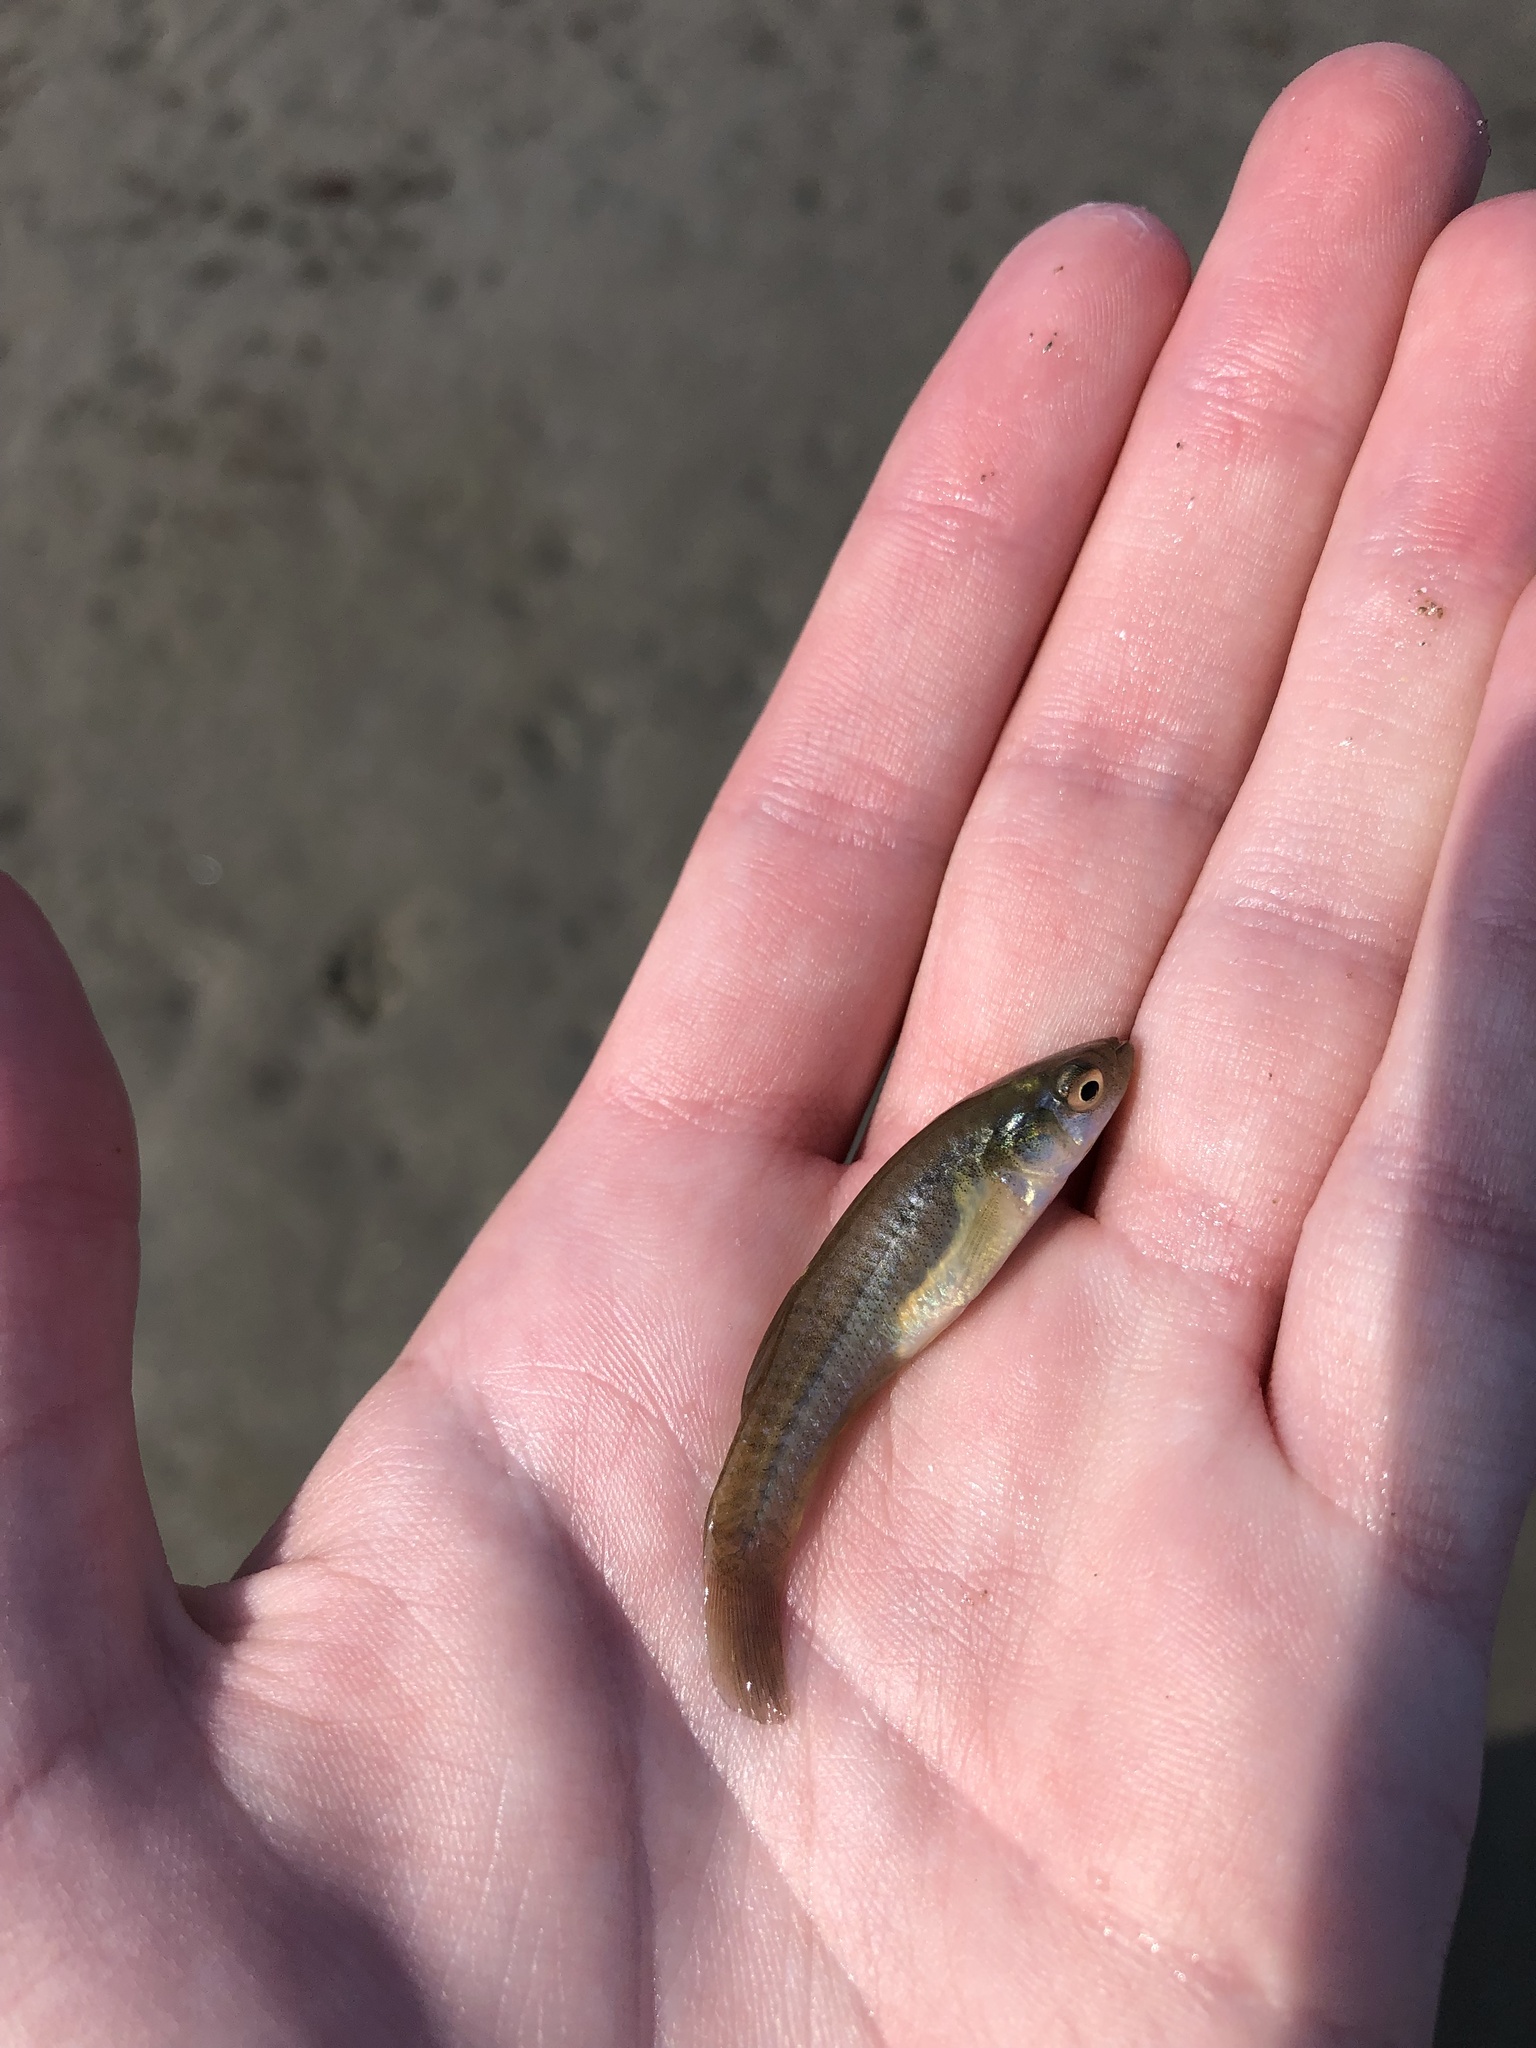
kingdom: Animalia
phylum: Chordata
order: Cyprinodontiformes
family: Fundulidae
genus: Fundulus
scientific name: Fundulus heteroclitus
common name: Mummichog
